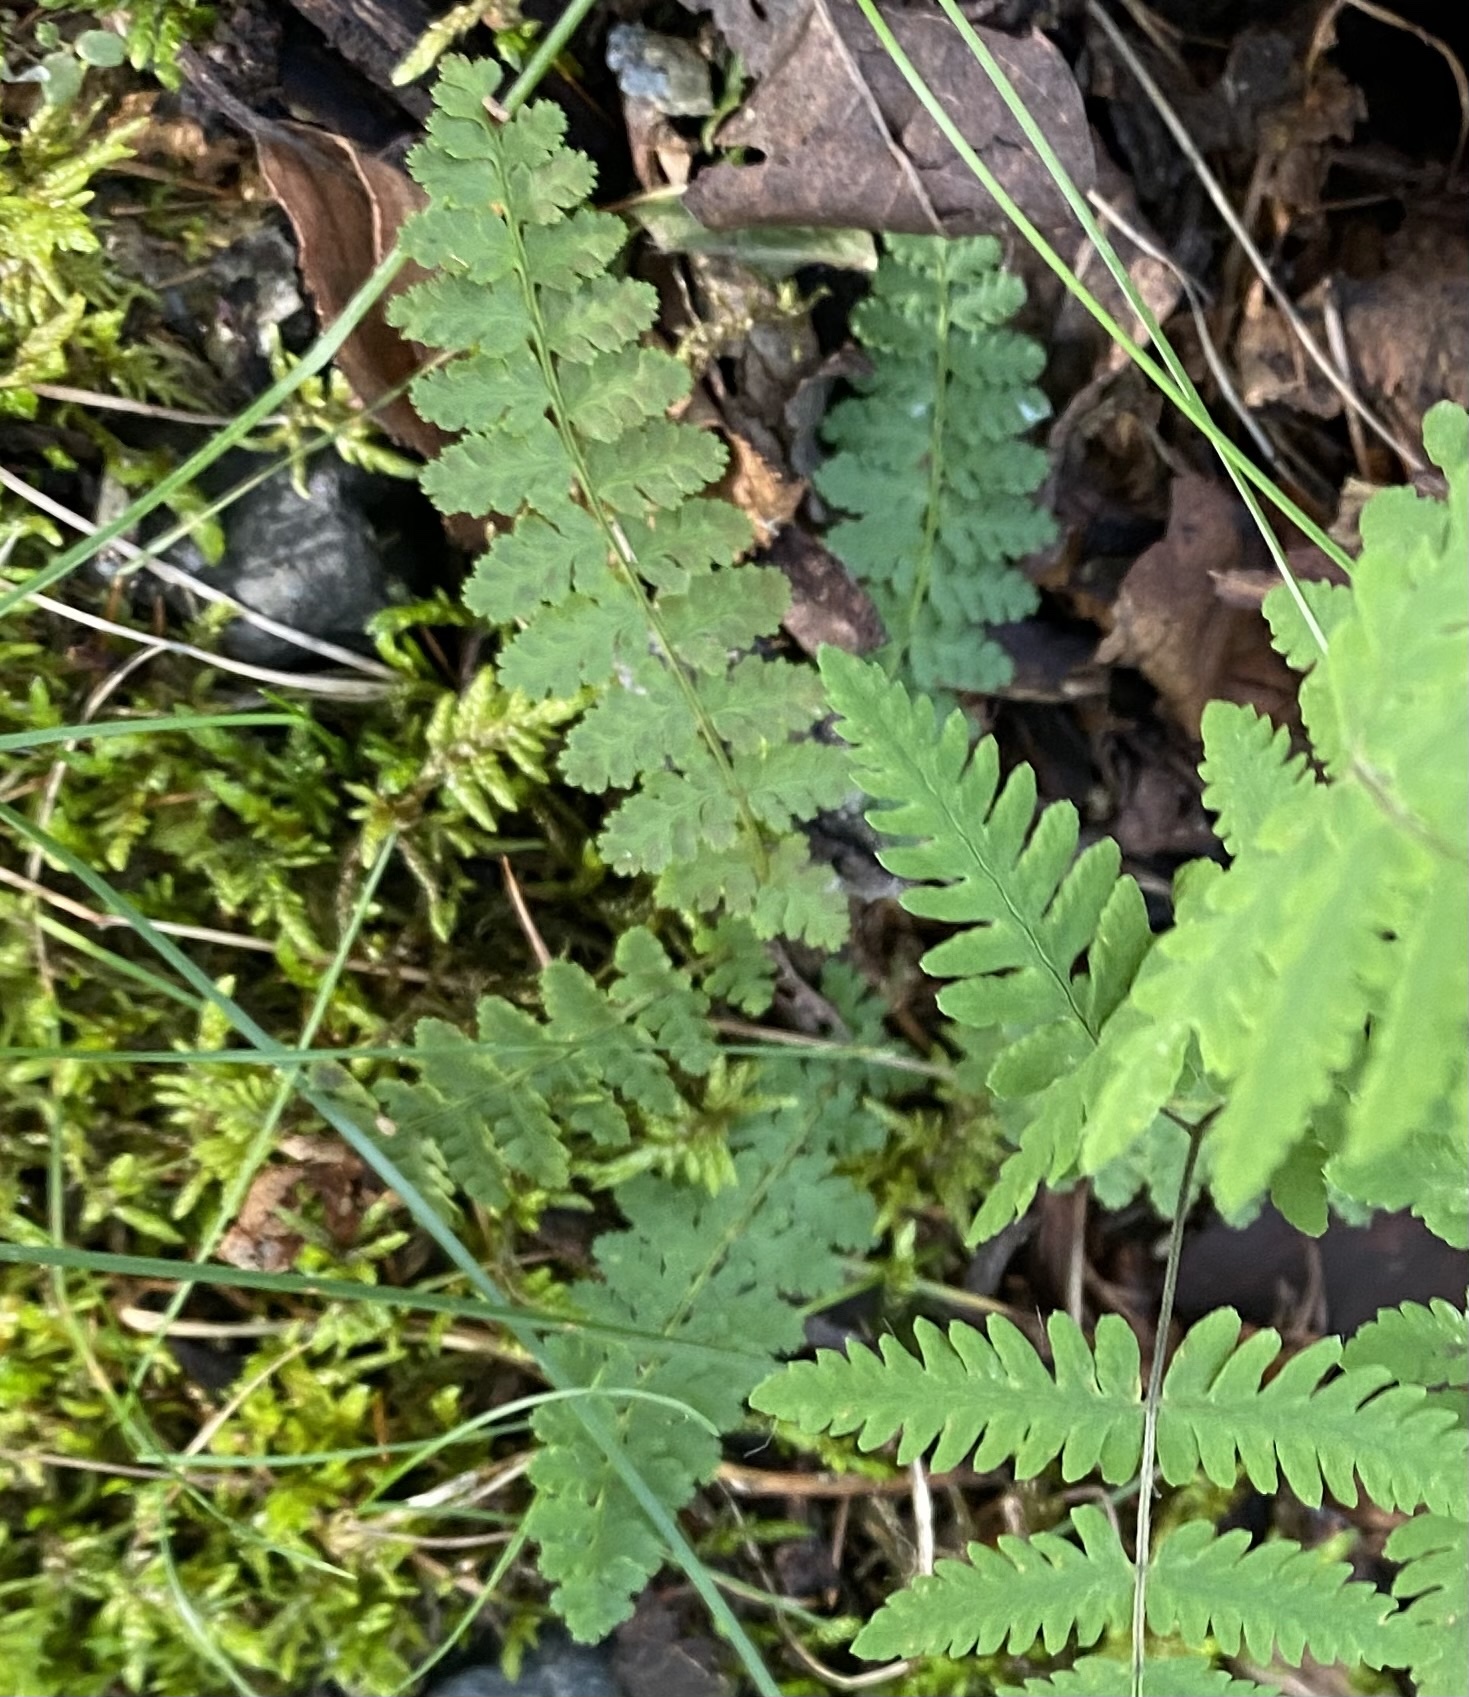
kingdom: Plantae
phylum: Tracheophyta
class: Polypodiopsida
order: Polypodiales
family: Dryopteridaceae
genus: Dryopteris
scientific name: Dryopteris fragrans
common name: Fragrant wood fern
